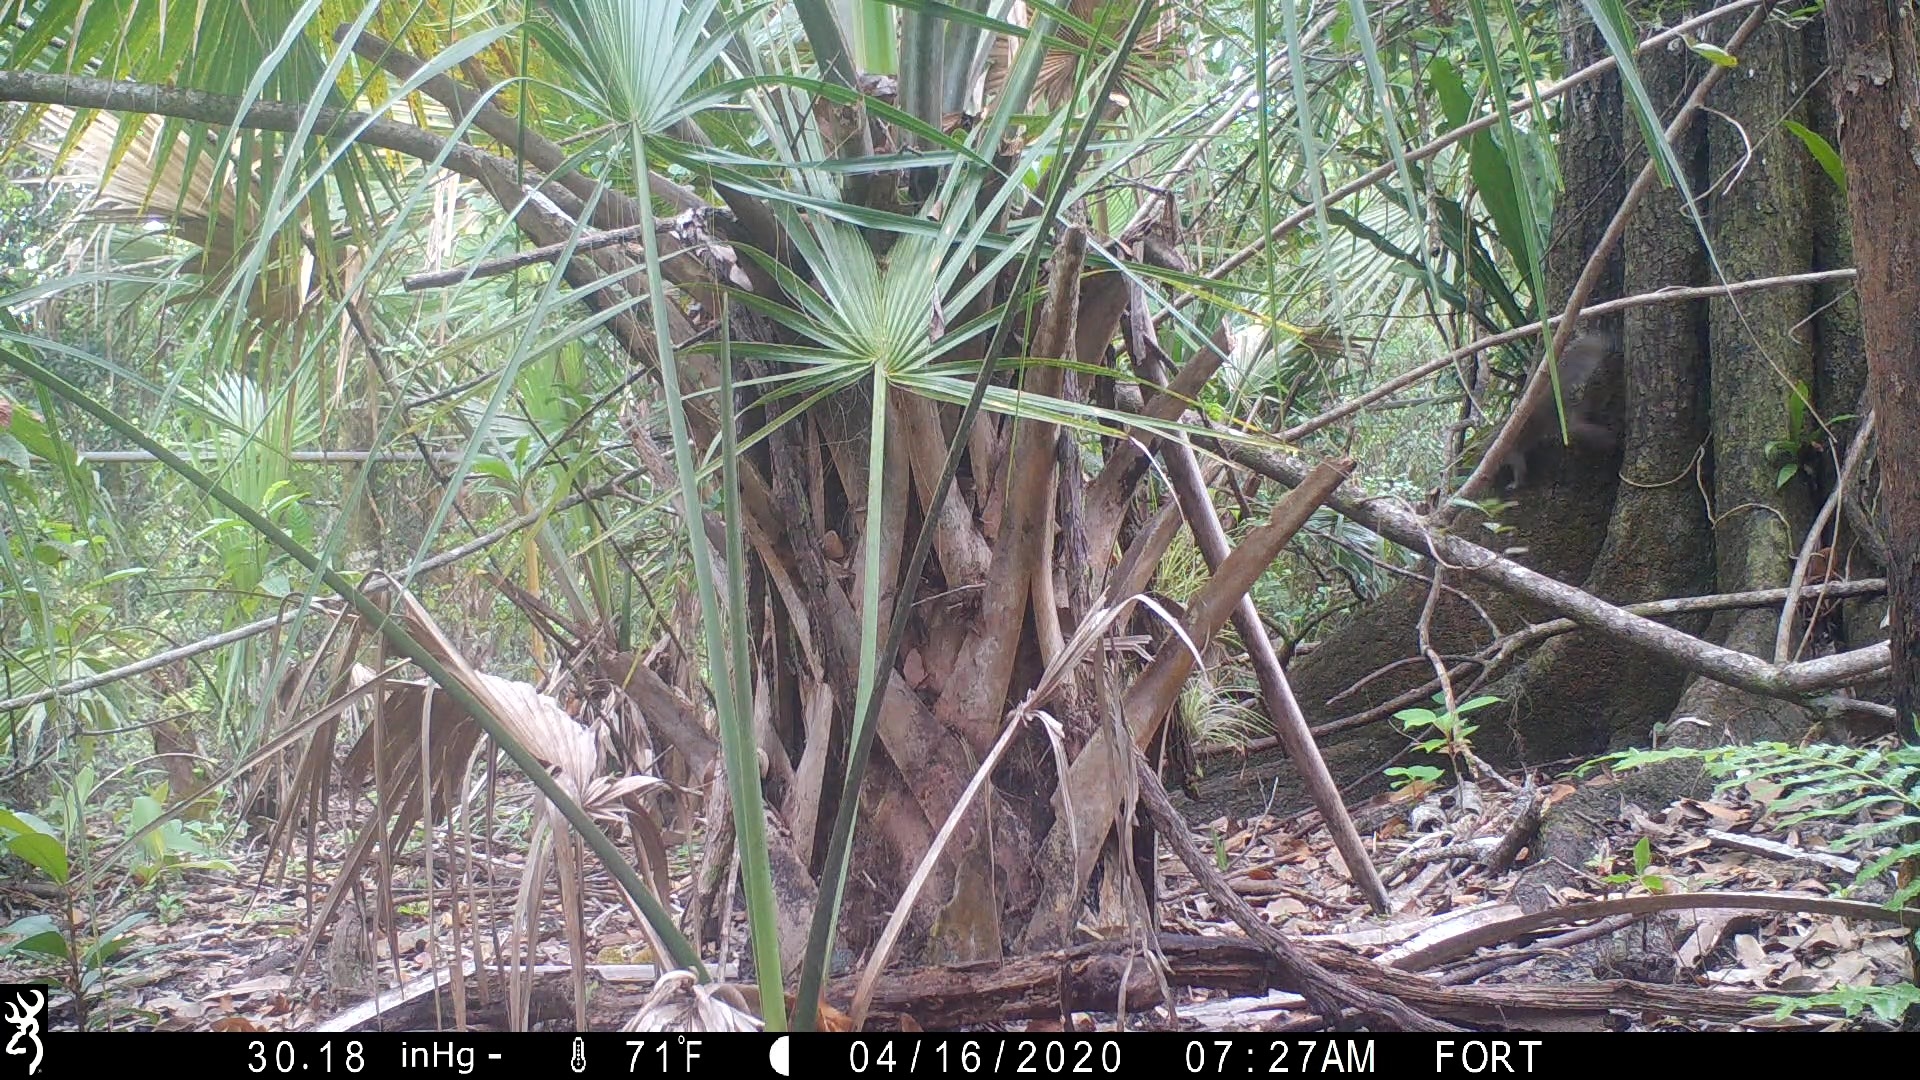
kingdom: Animalia
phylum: Chordata
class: Mammalia
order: Rodentia
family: Sciuridae
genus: Sciurus
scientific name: Sciurus carolinensis
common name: Eastern gray squirrel
